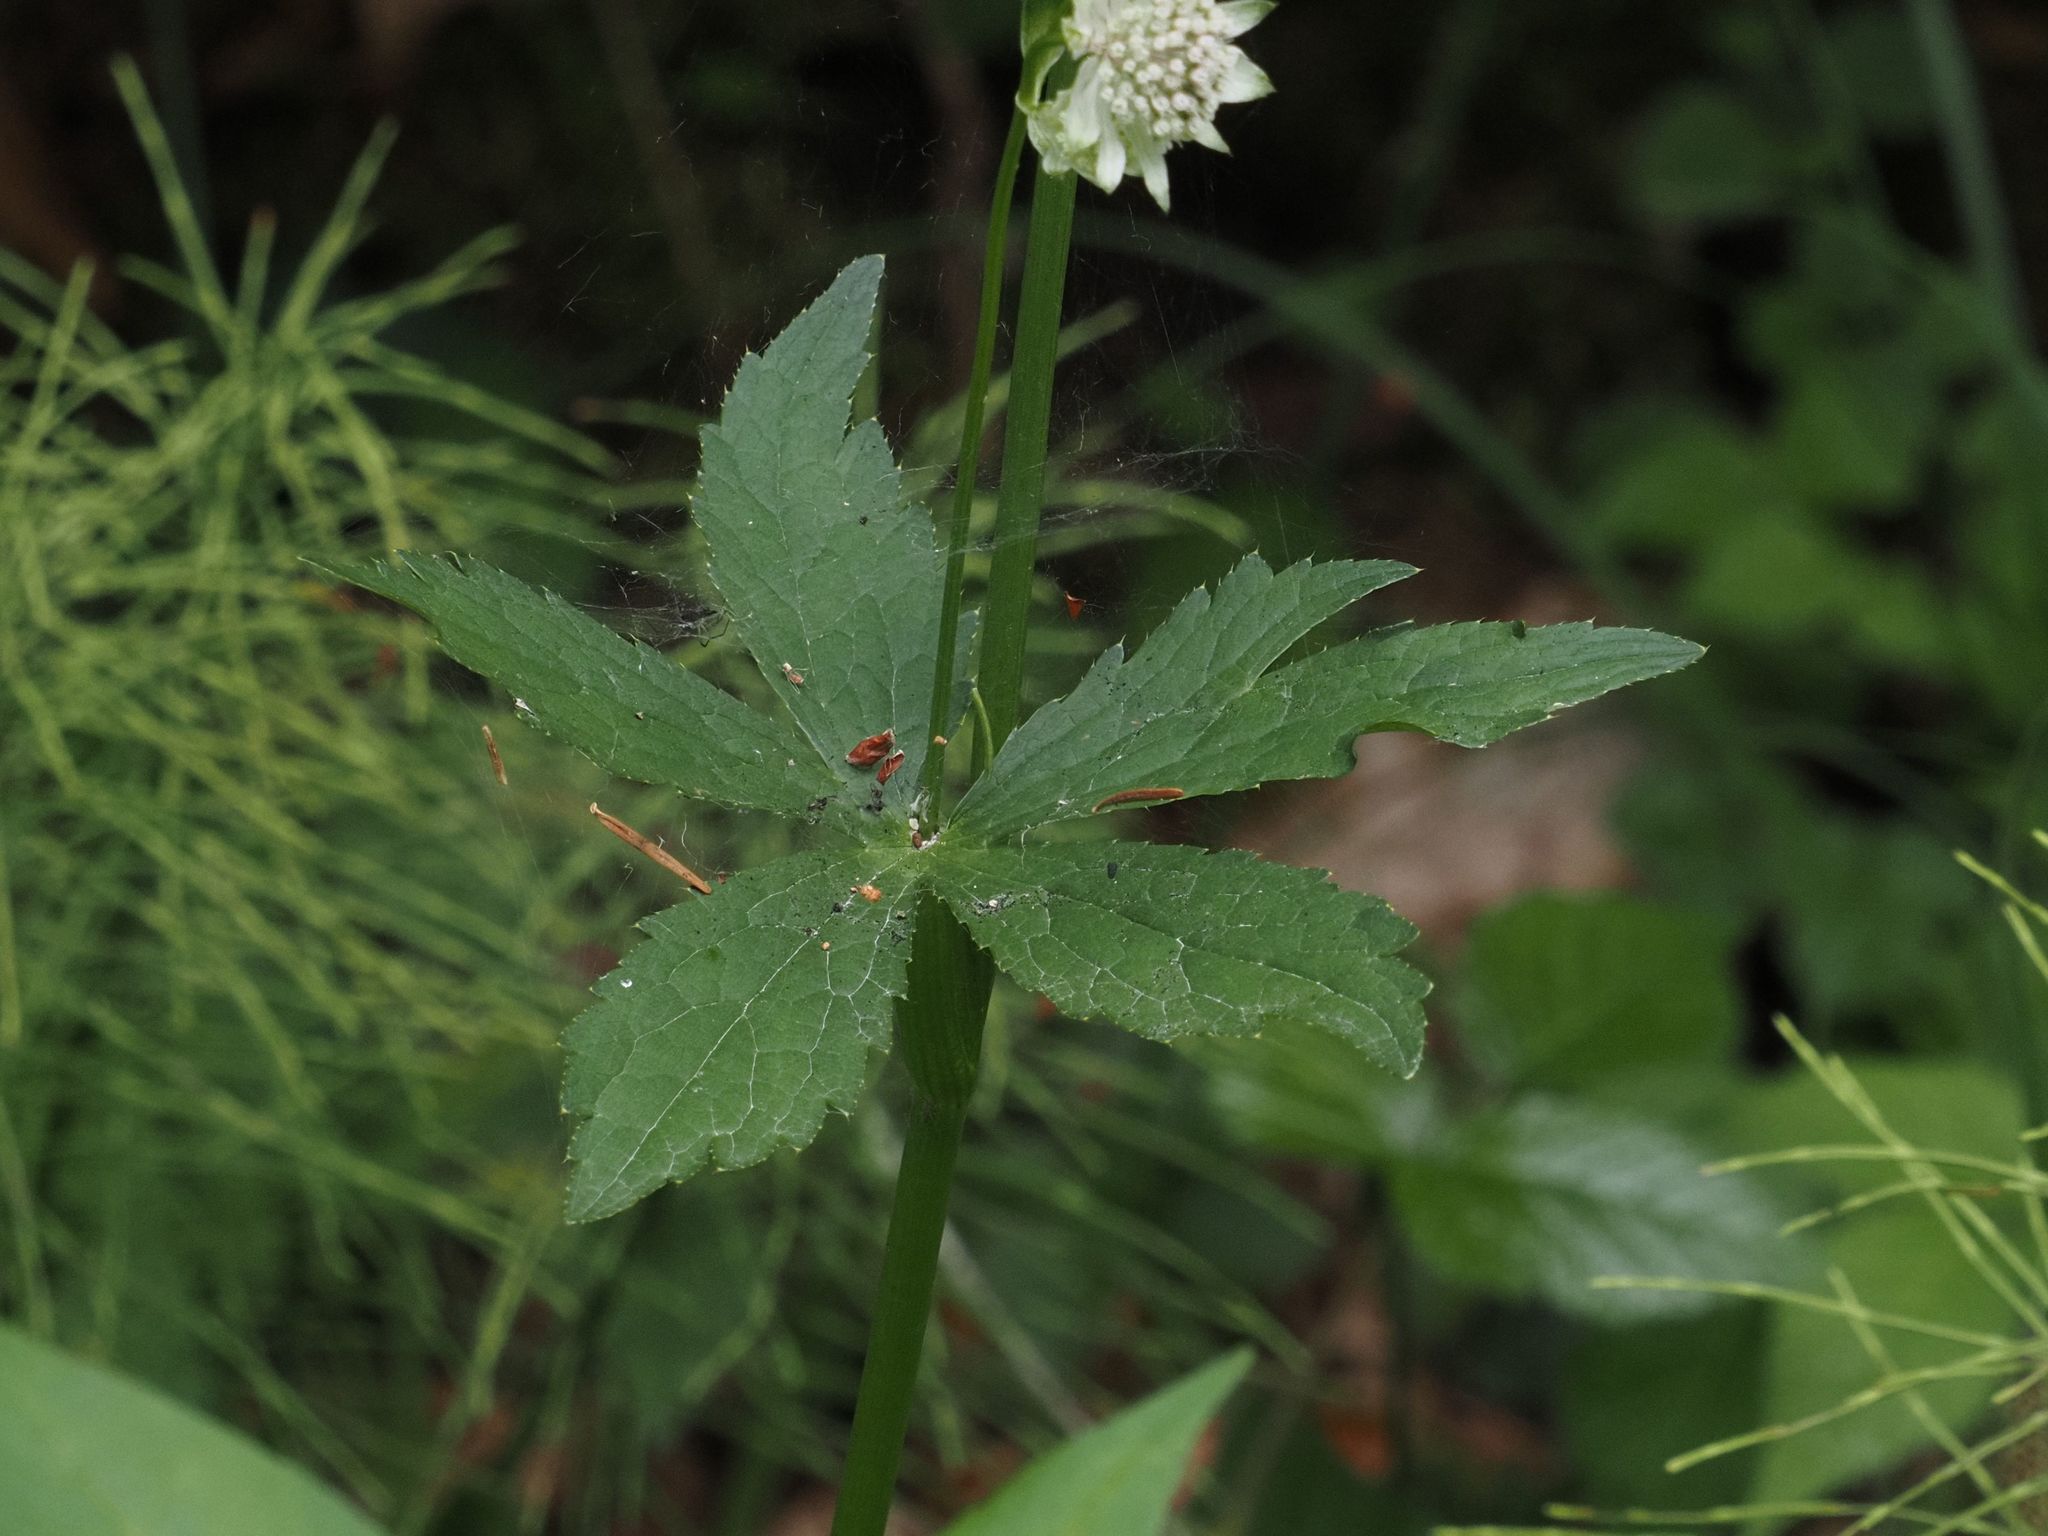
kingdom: Plantae
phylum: Tracheophyta
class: Magnoliopsida
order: Apiales
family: Apiaceae
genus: Astrantia
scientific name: Astrantia major
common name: Greater masterwort
